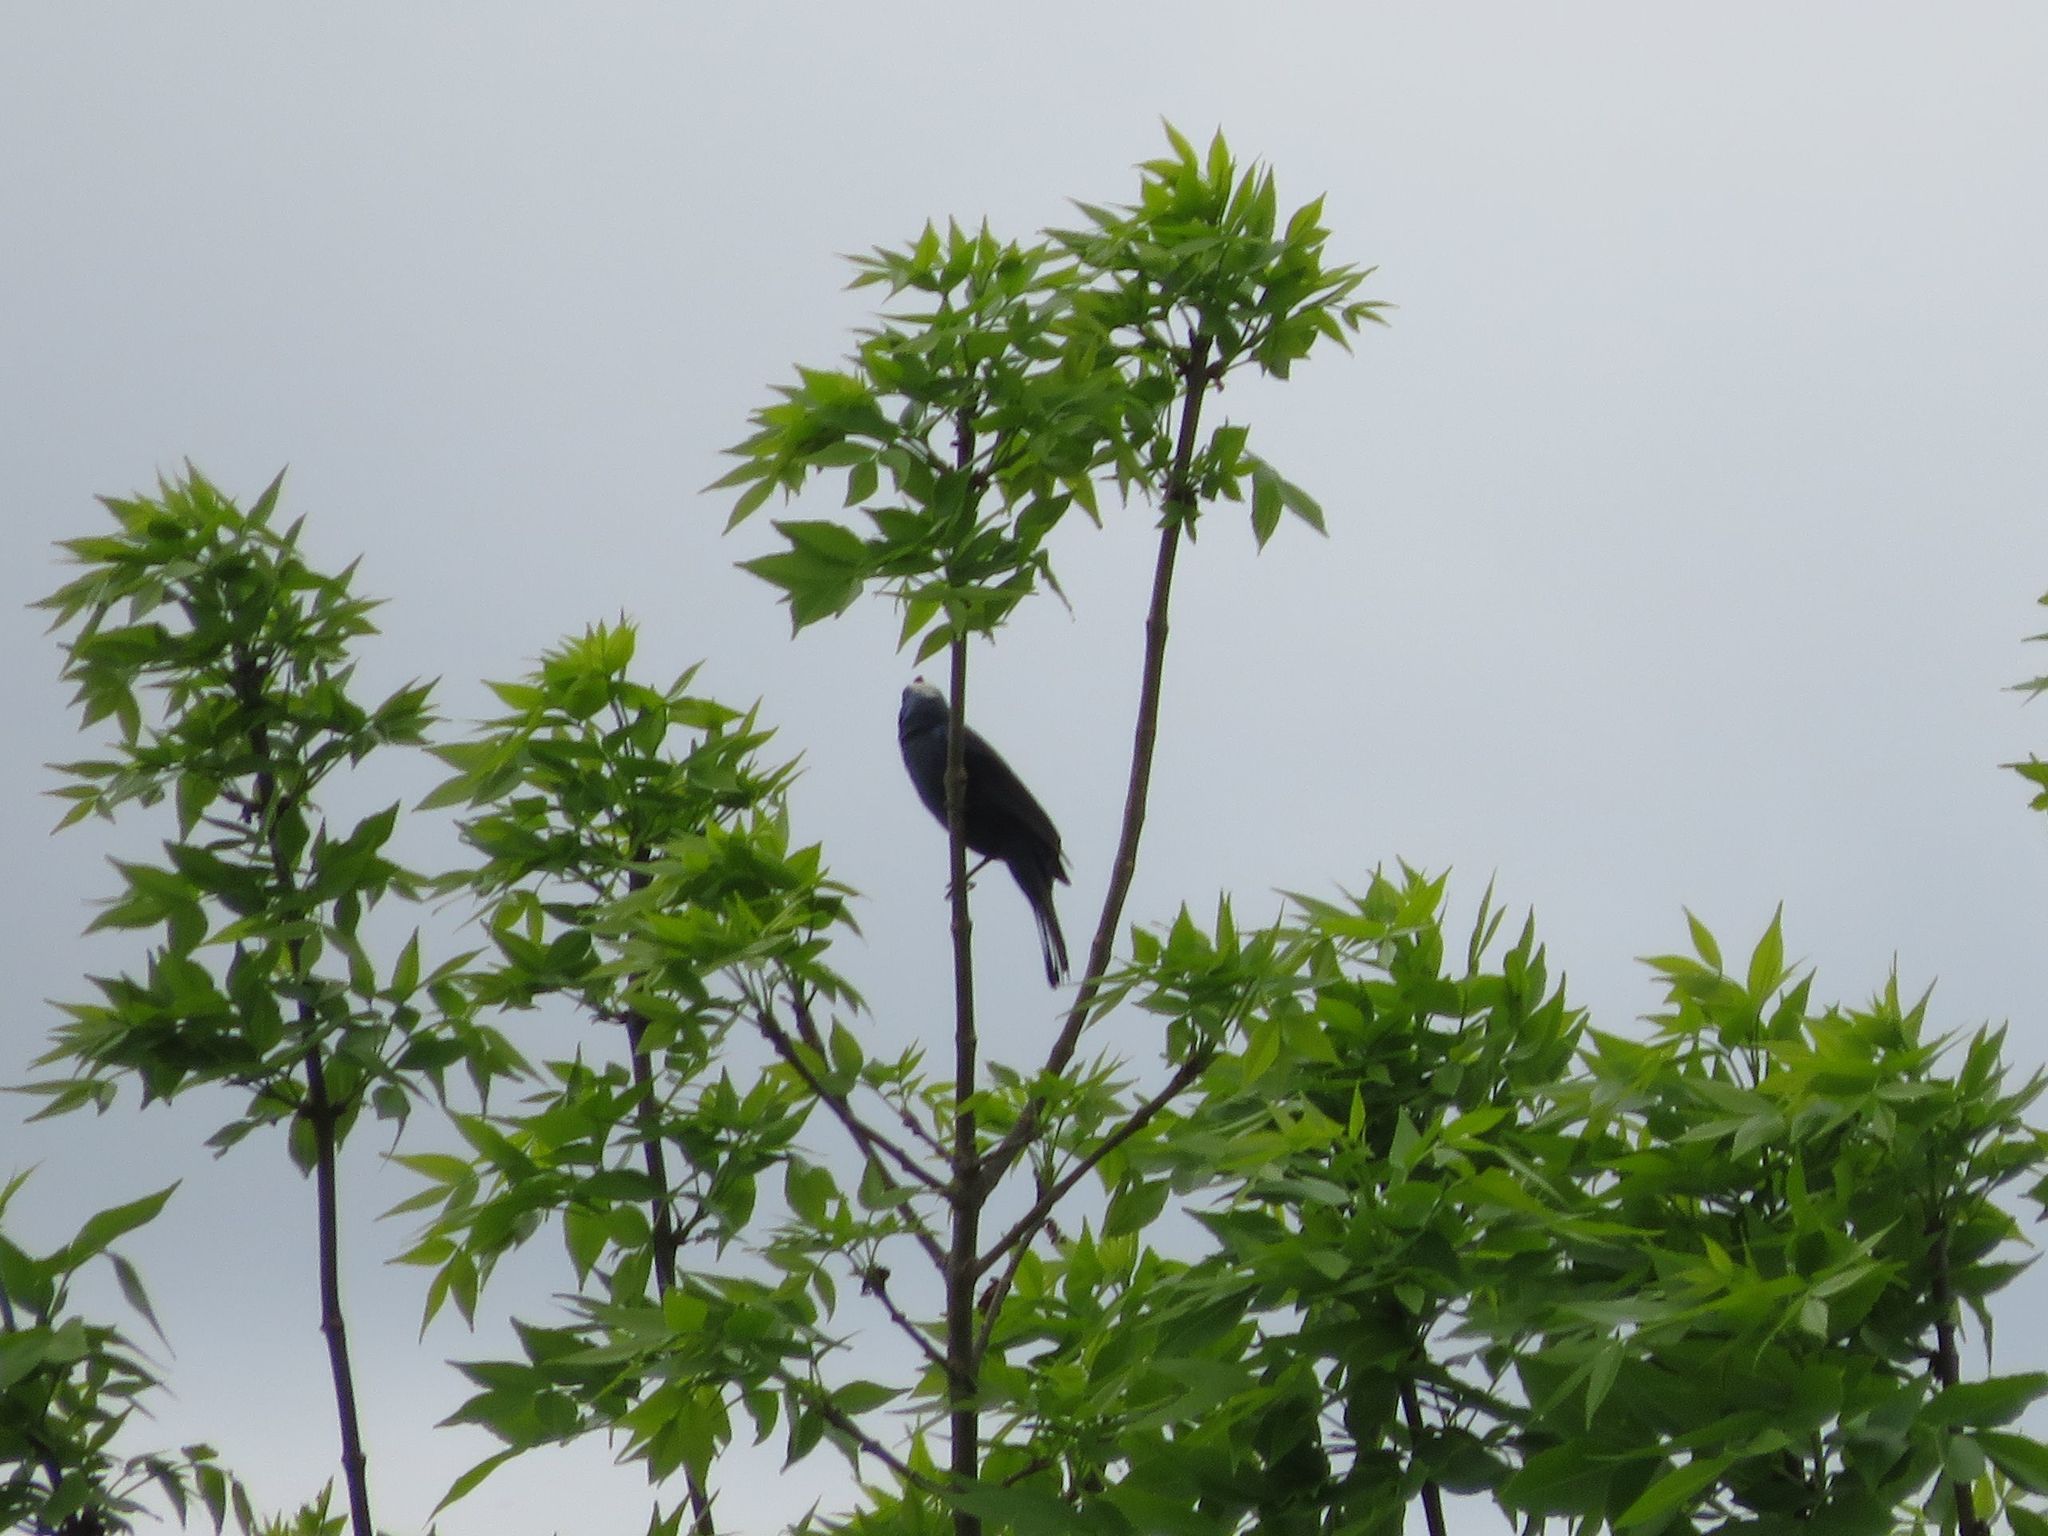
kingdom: Animalia
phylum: Chordata
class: Aves
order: Passeriformes
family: Thraupidae
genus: Stephanophorus
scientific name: Stephanophorus diadematus
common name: Diademed tanager
